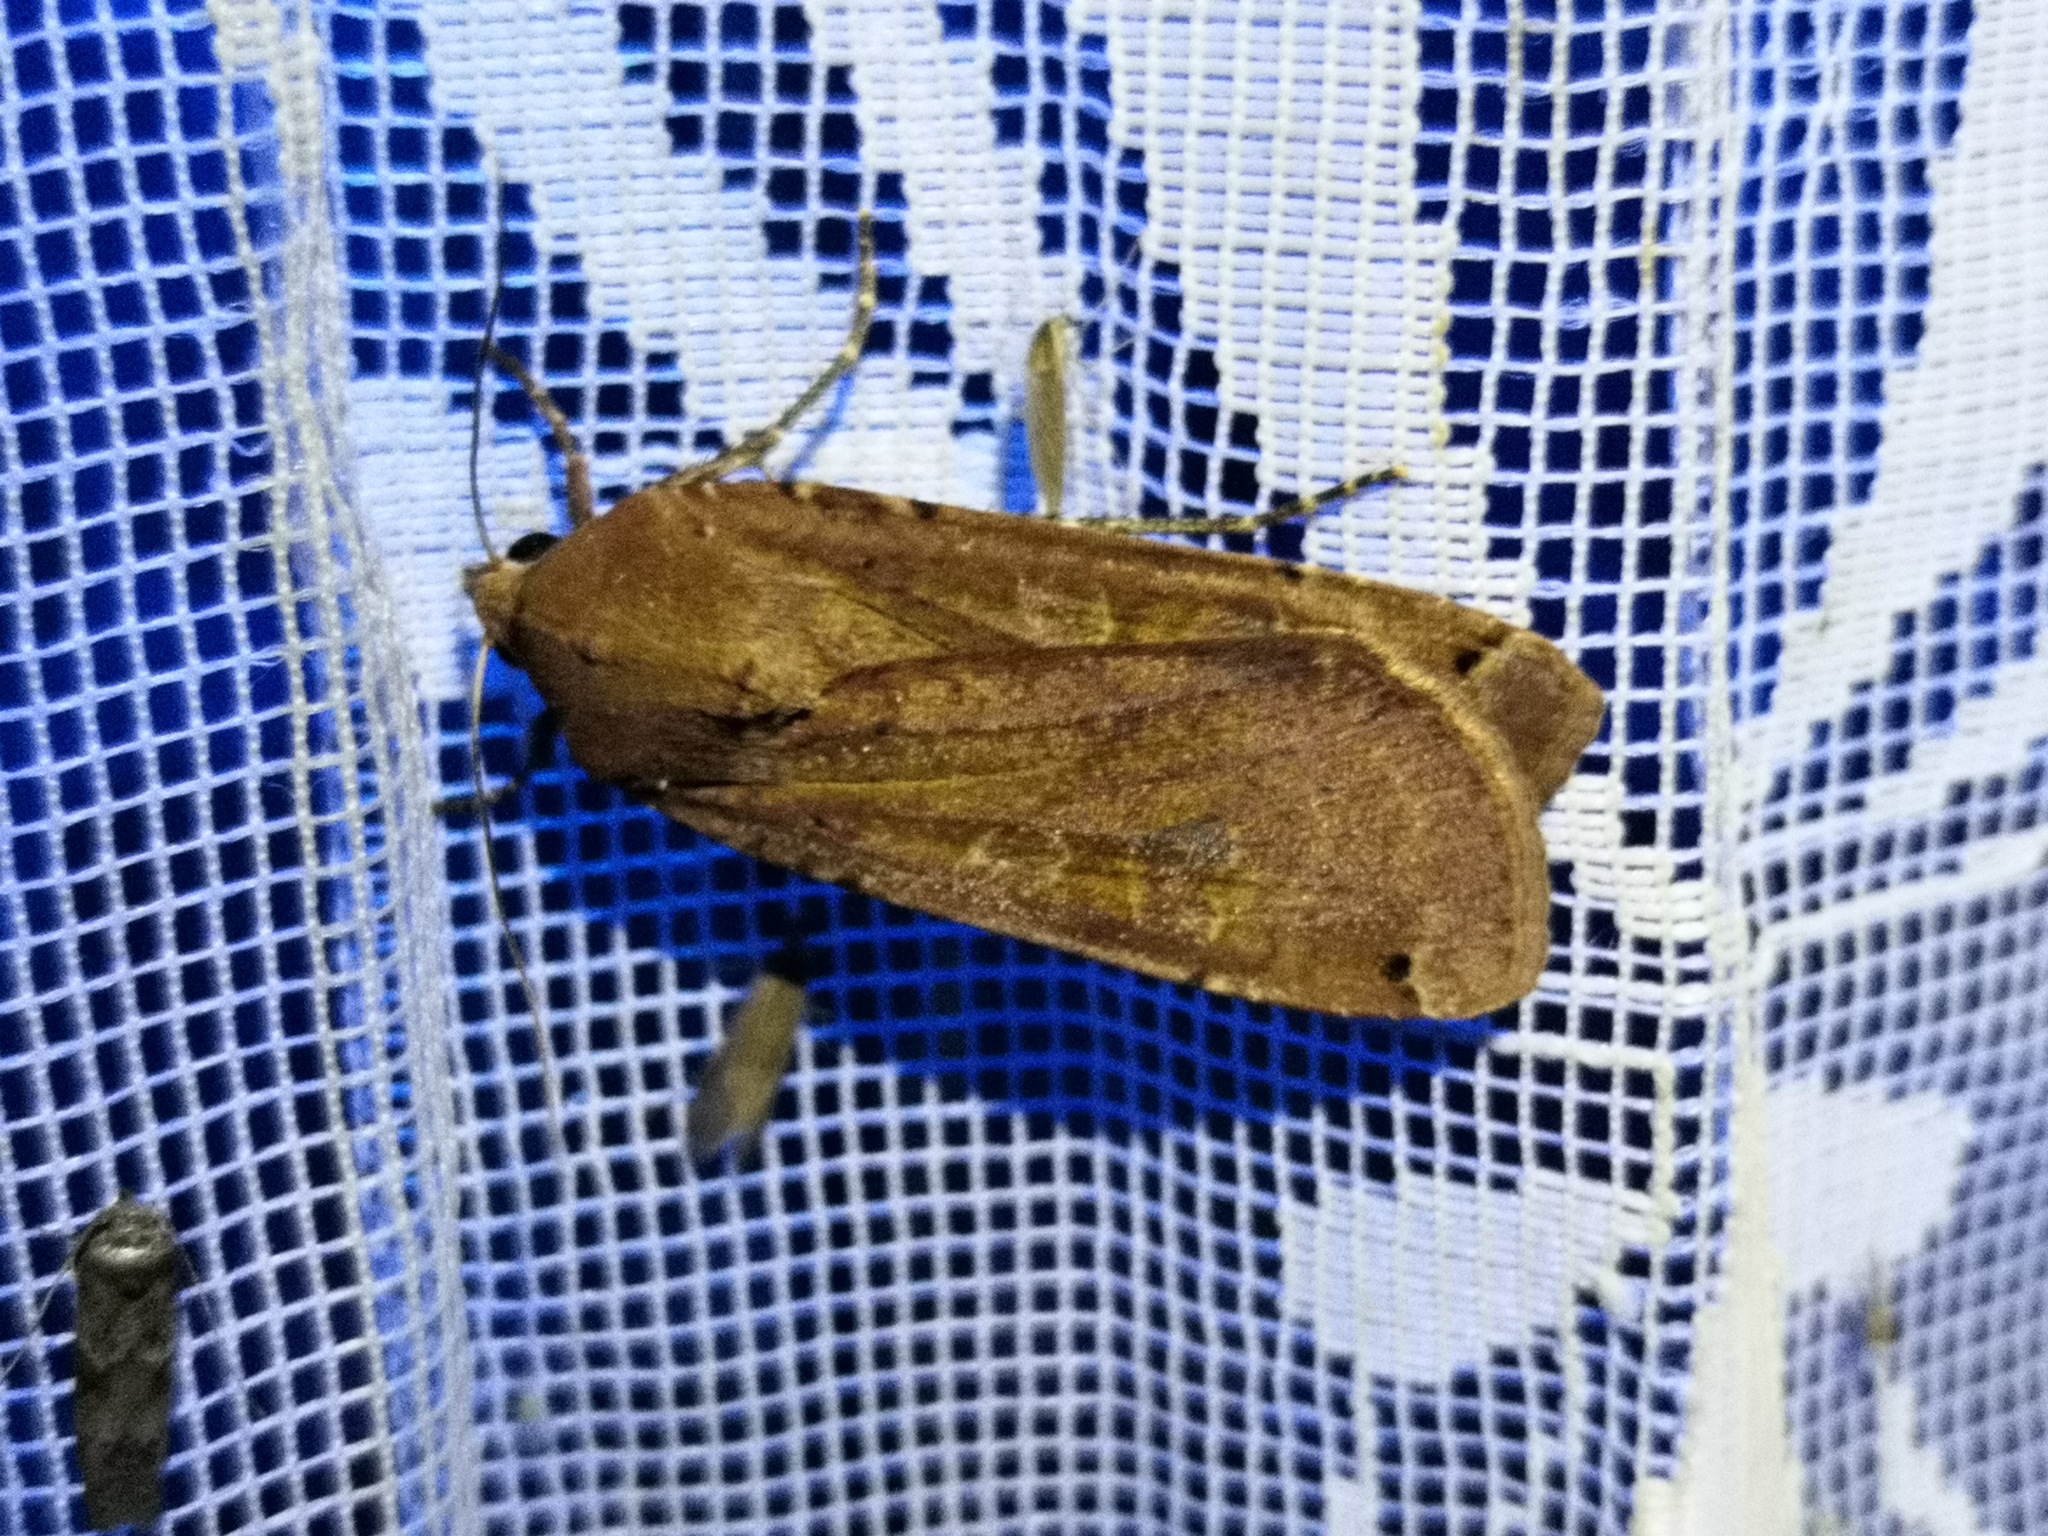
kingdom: Animalia
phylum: Arthropoda
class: Insecta
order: Lepidoptera
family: Noctuidae
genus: Noctua
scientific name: Noctua pronuba
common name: Large yellow underwing
